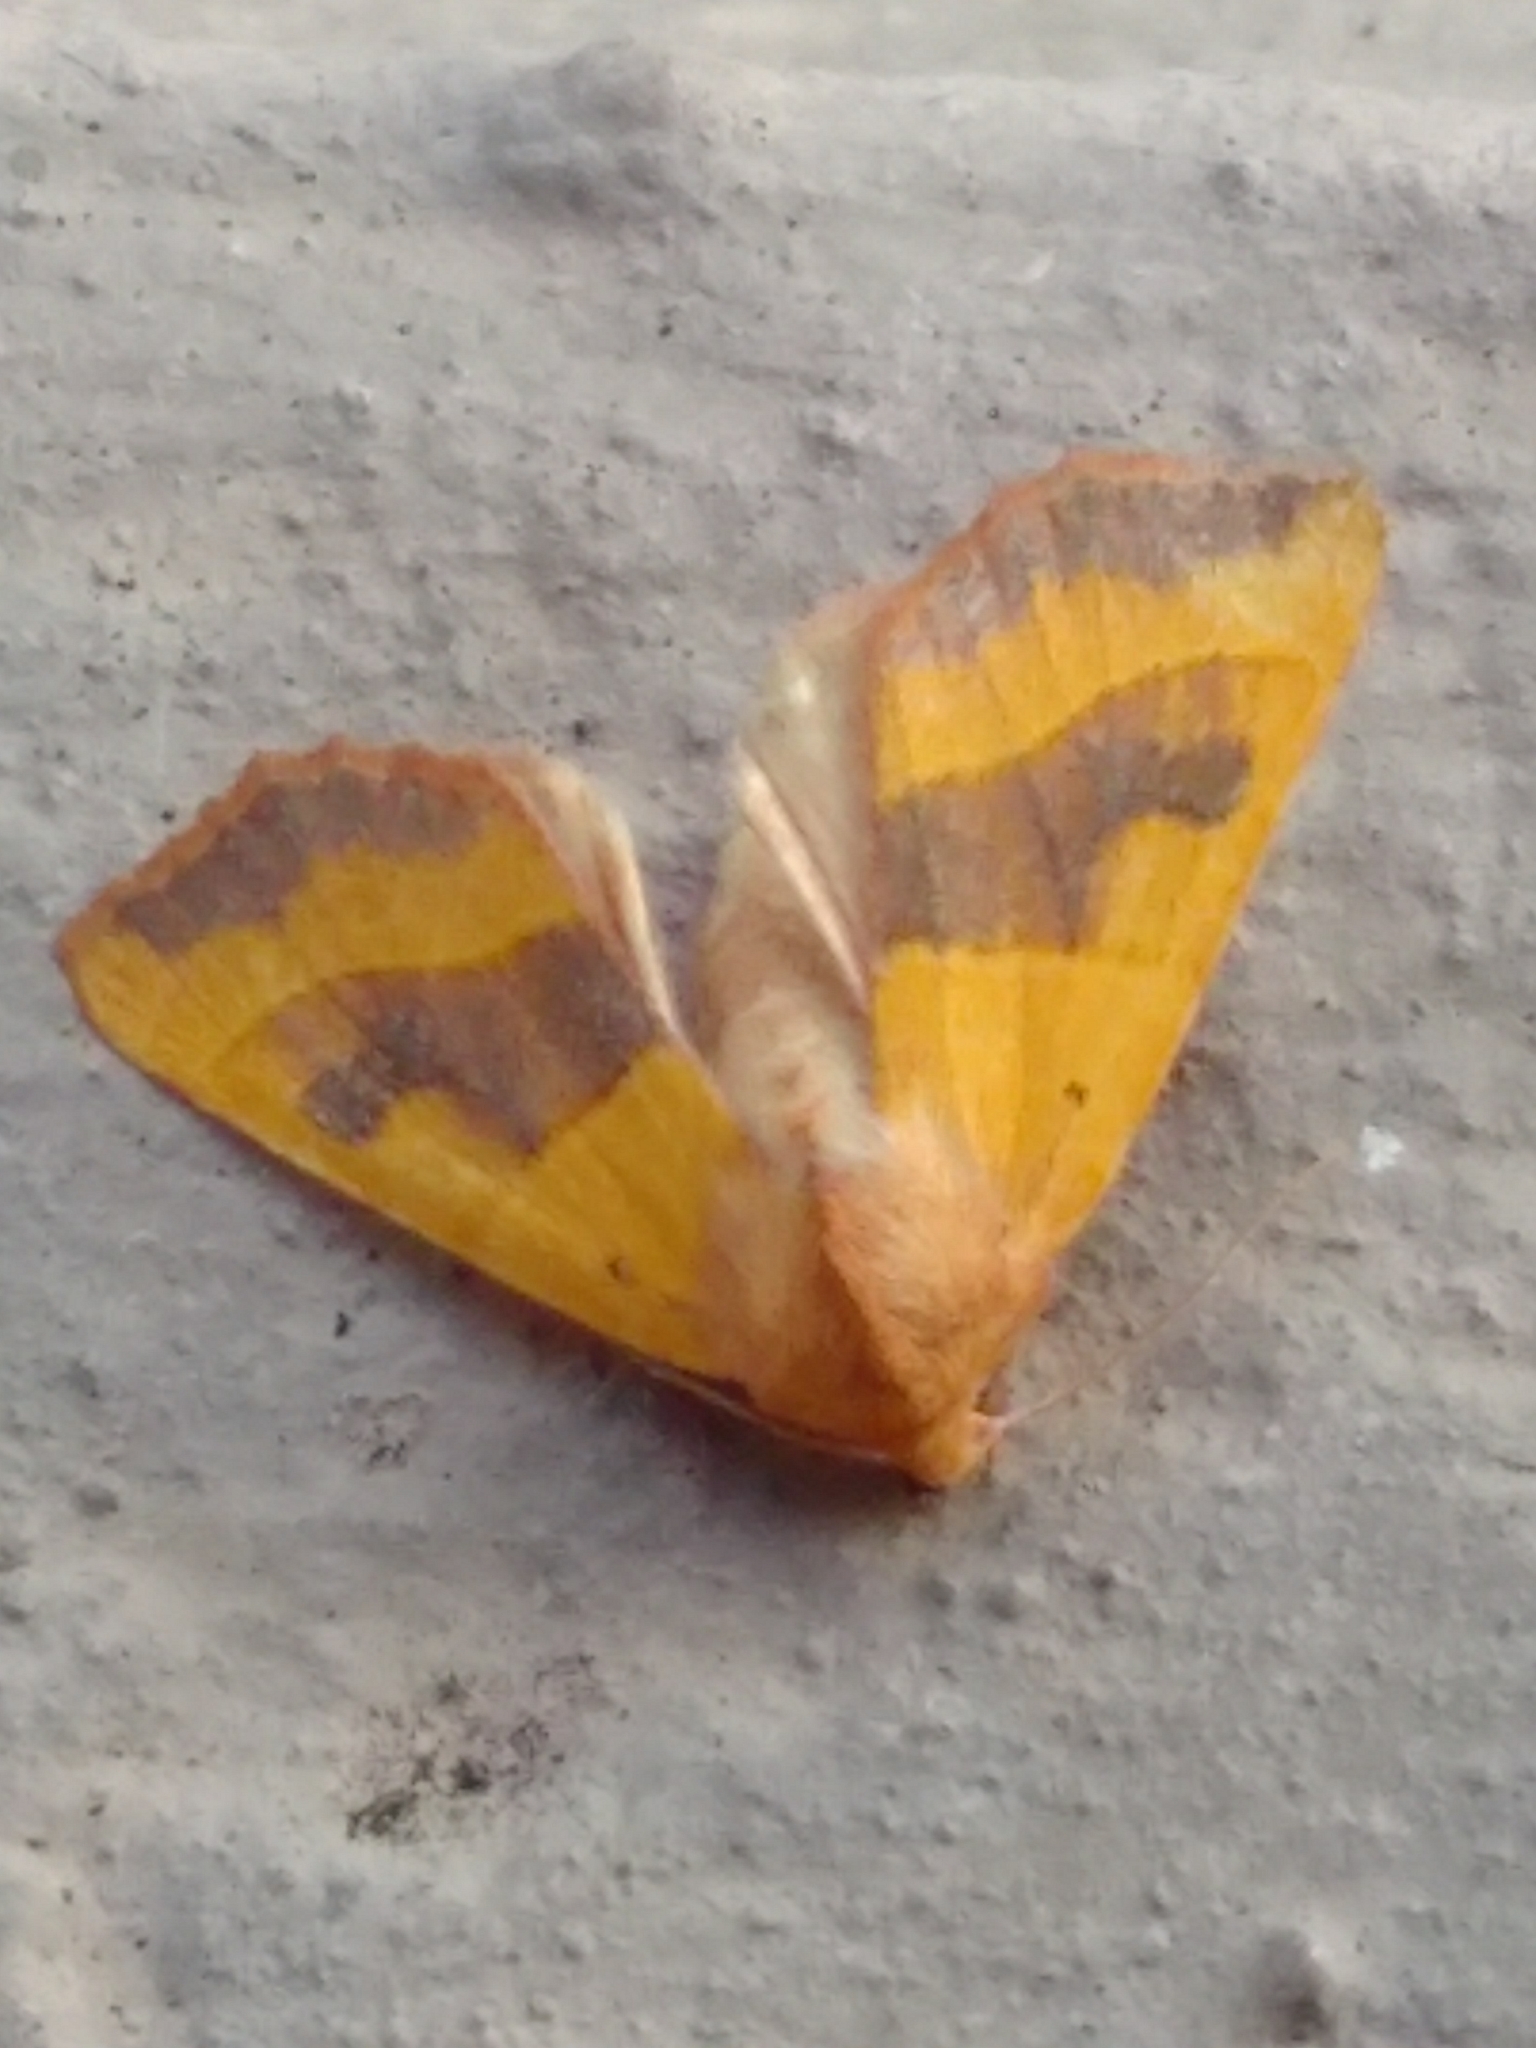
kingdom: Animalia
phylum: Arthropoda
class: Insecta
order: Lepidoptera
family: Noctuidae
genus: Atethmia
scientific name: Atethmia centrago
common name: Centre-barred sallow
